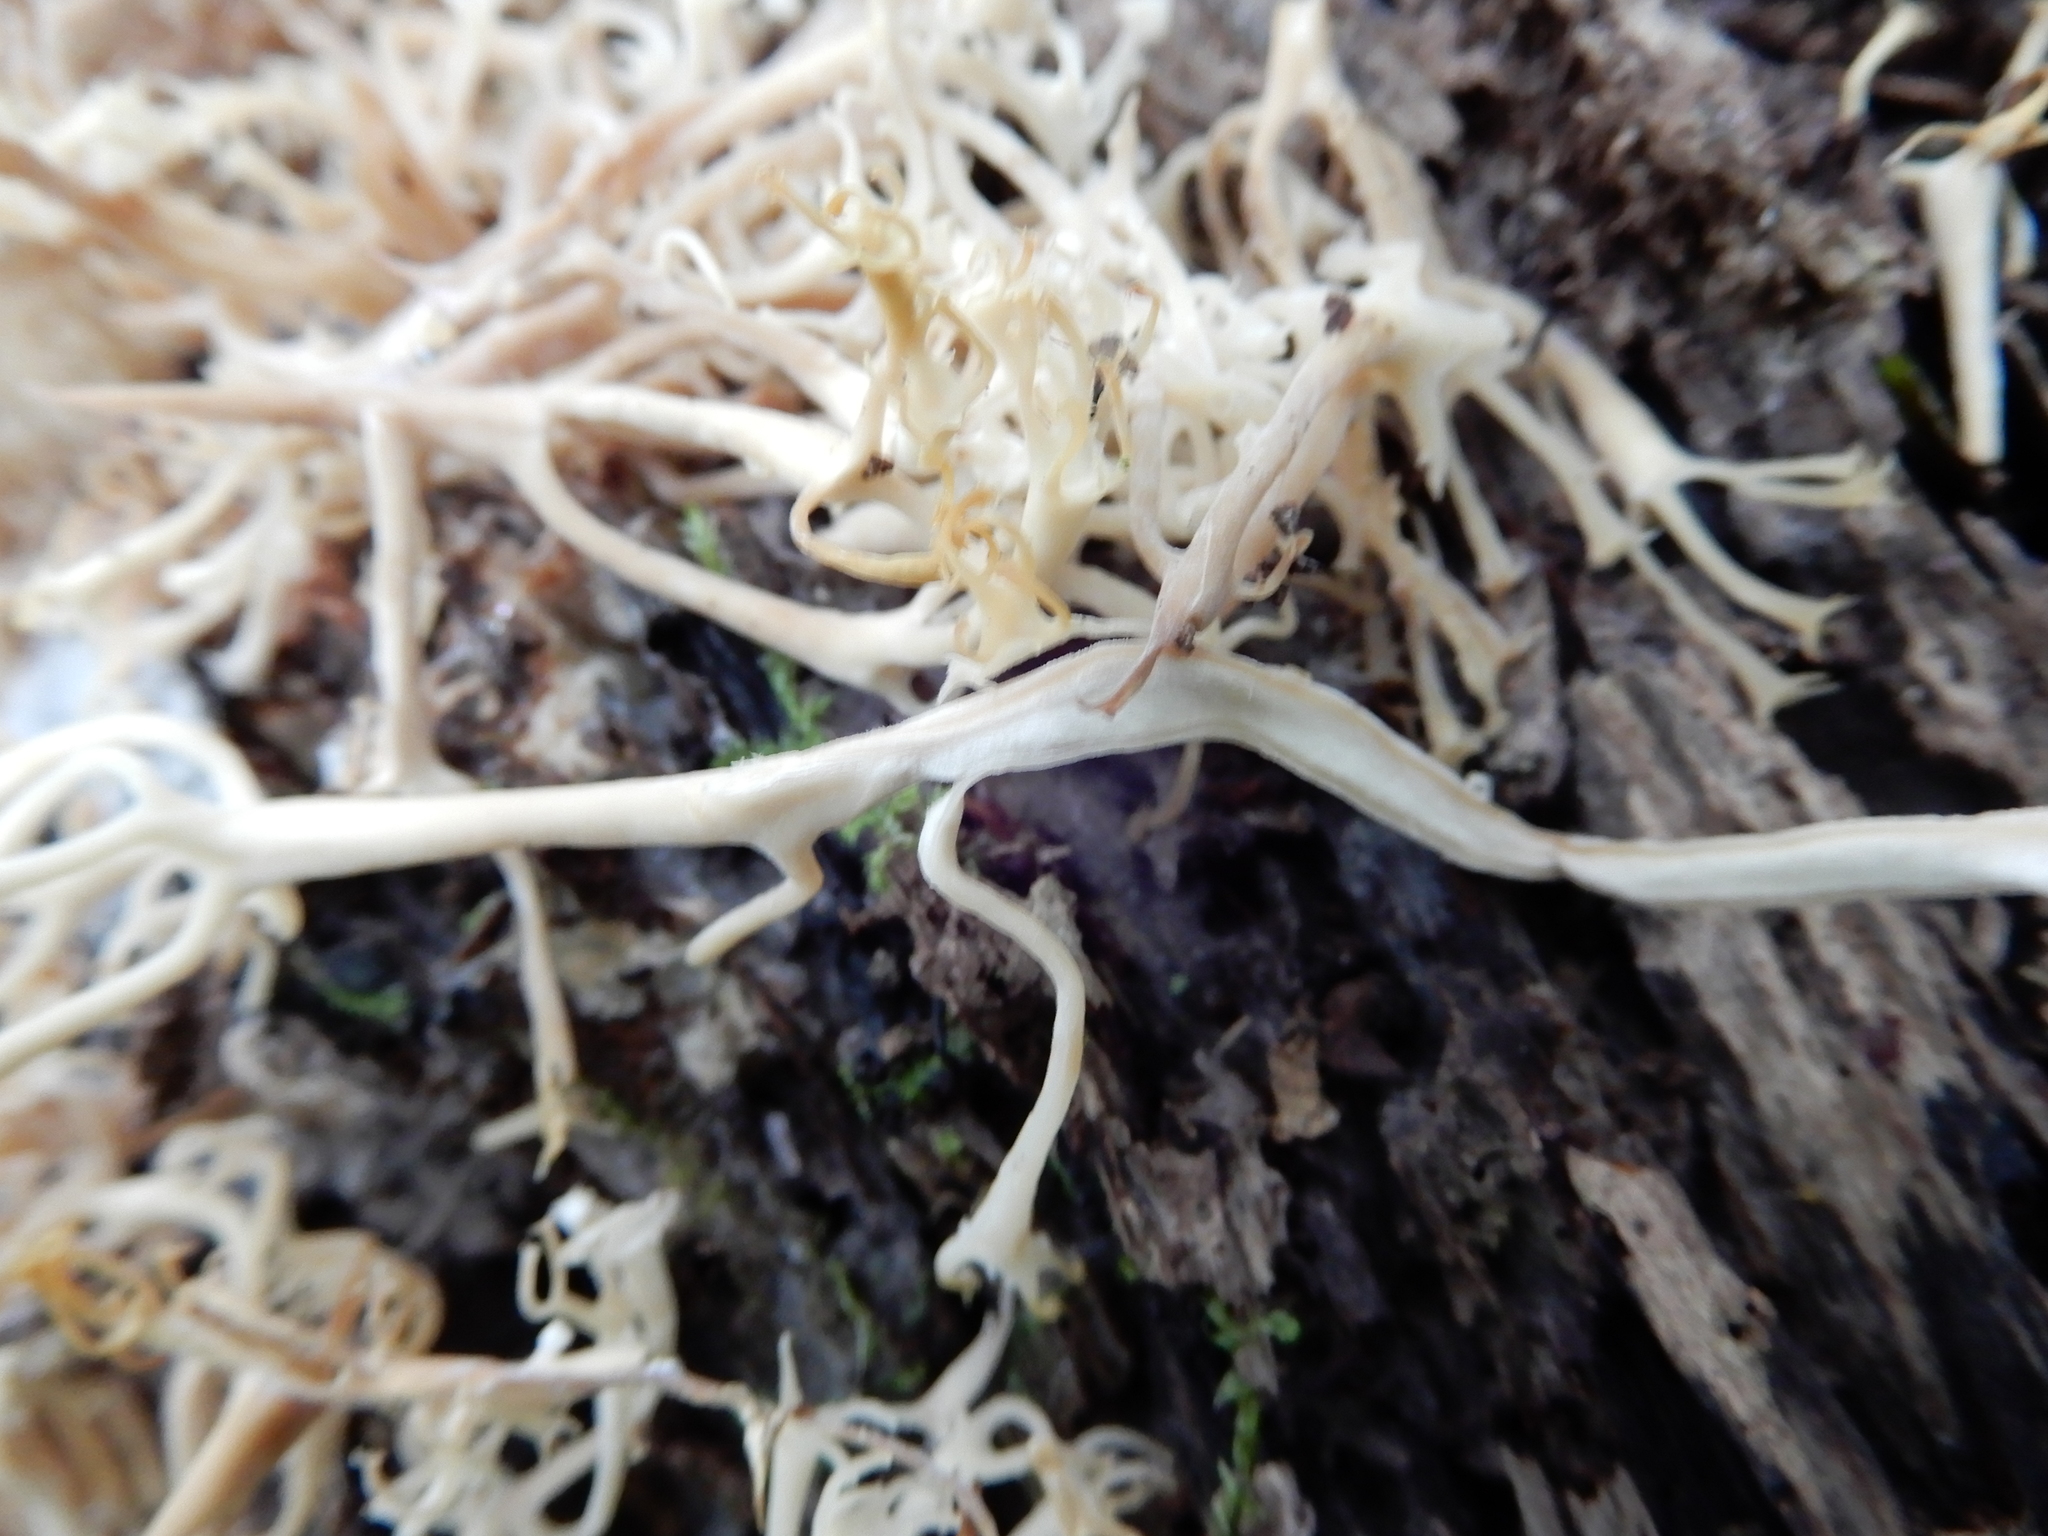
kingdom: Fungi
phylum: Basidiomycota
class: Agaricomycetes
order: Russulales
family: Auriscalpiaceae
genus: Artomyces
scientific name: Artomyces pyxidatus
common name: Crown-tipped coral fungus
